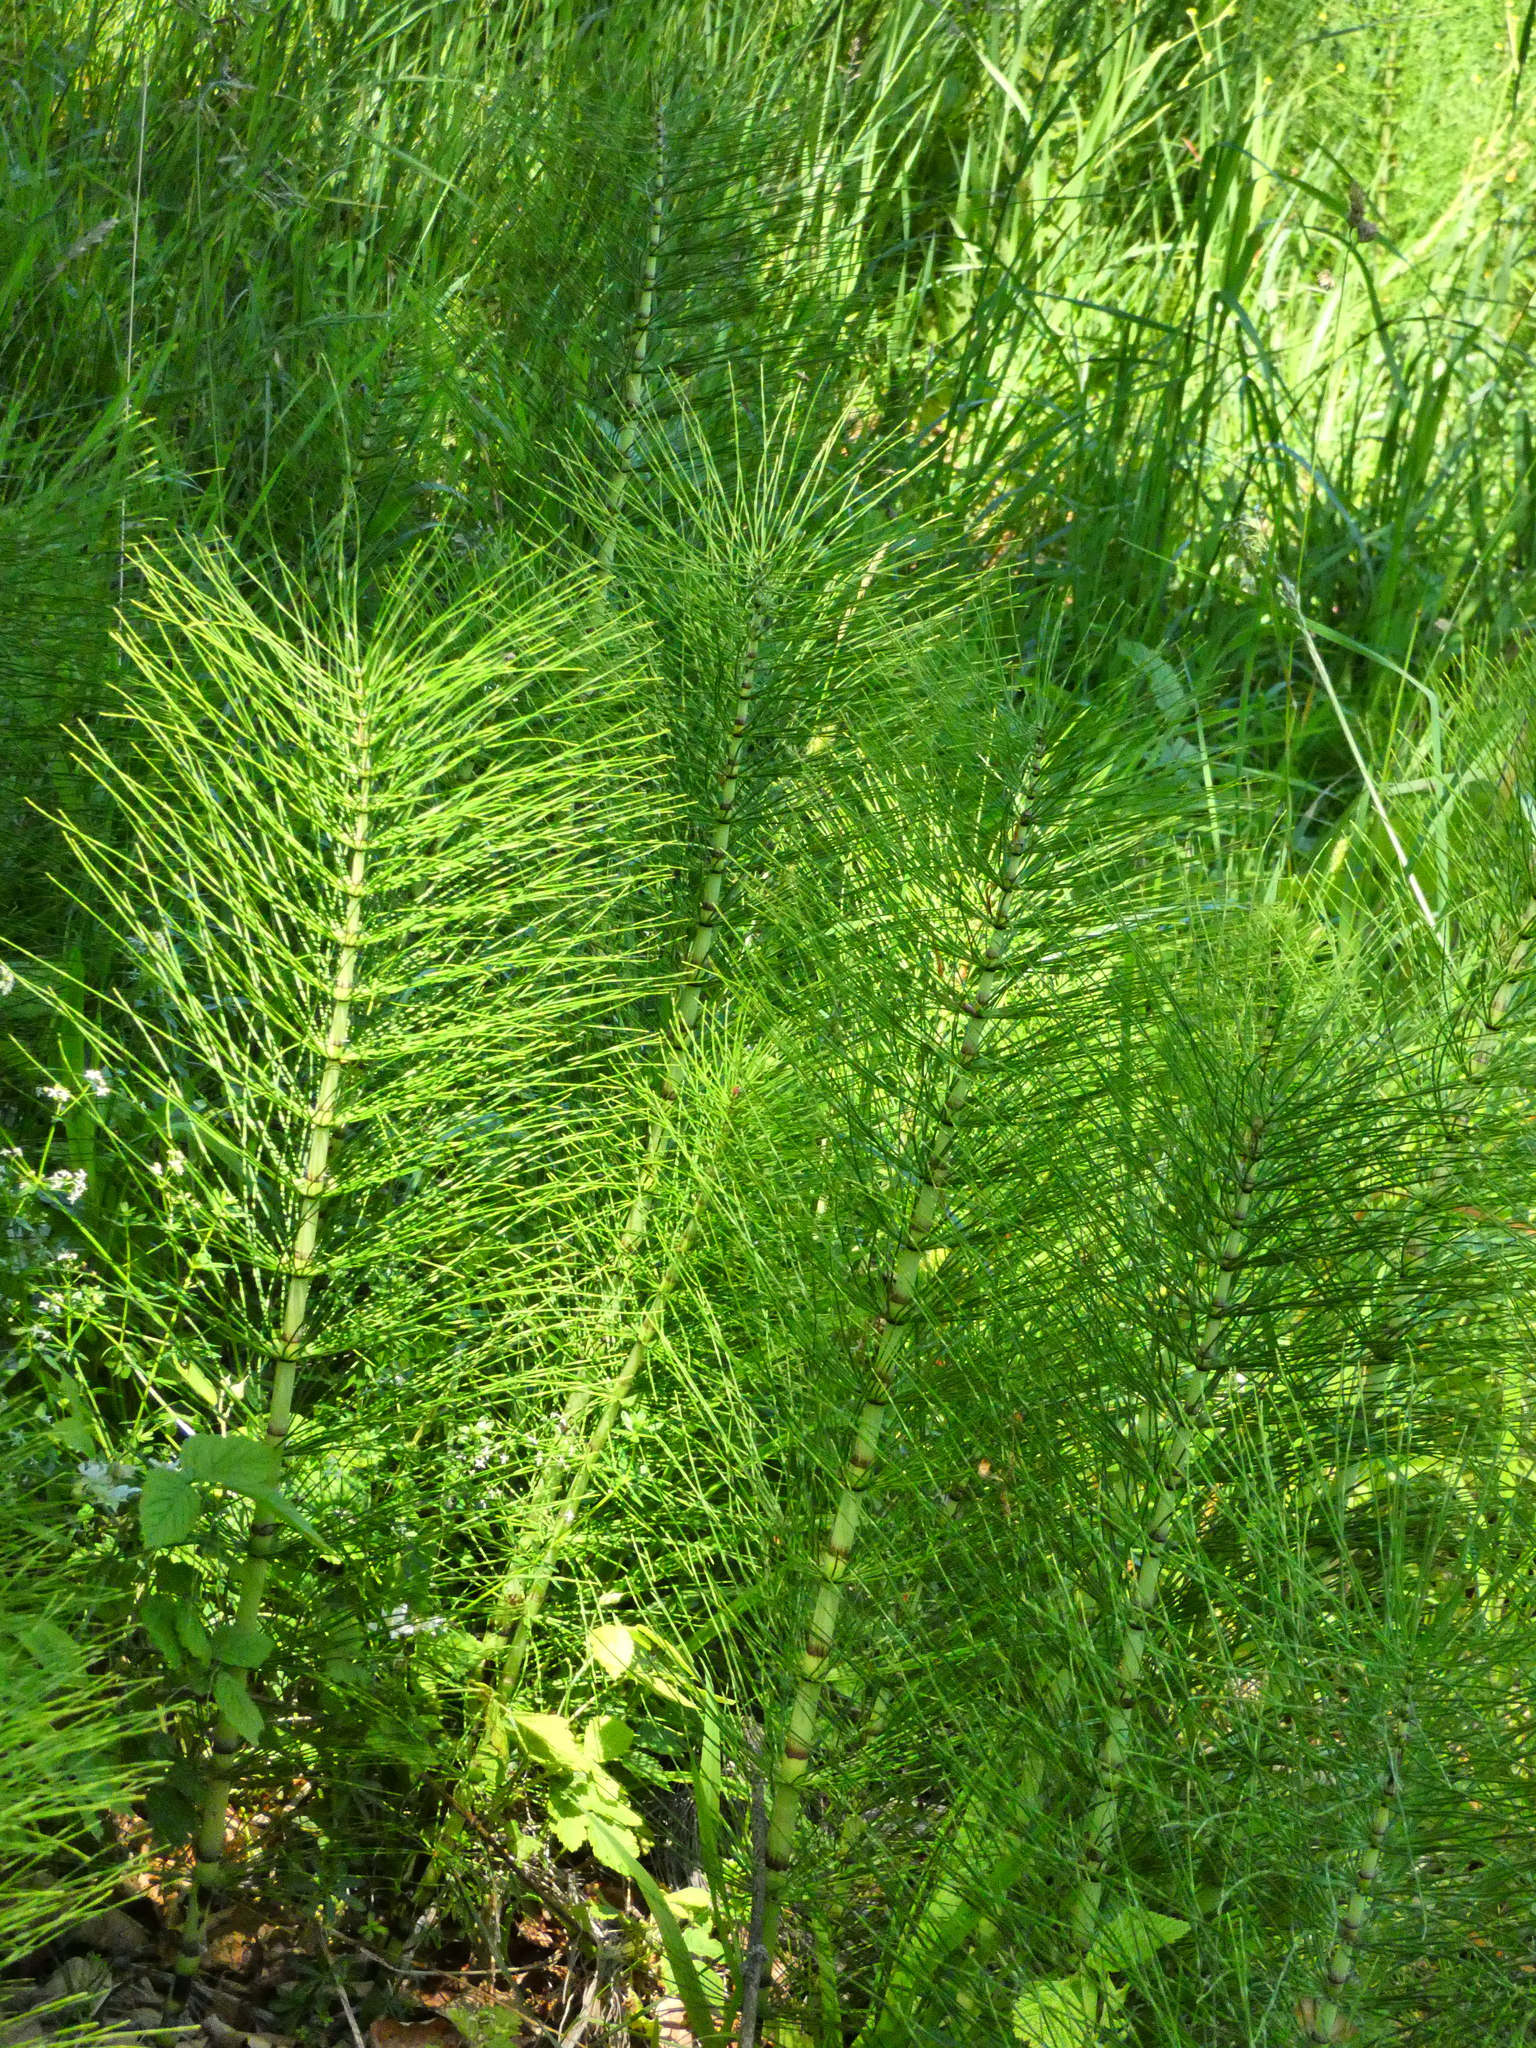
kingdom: Plantae
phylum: Tracheophyta
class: Polypodiopsida
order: Equisetales
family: Equisetaceae
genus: Equisetum
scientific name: Equisetum telmateia
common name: Great horsetail
